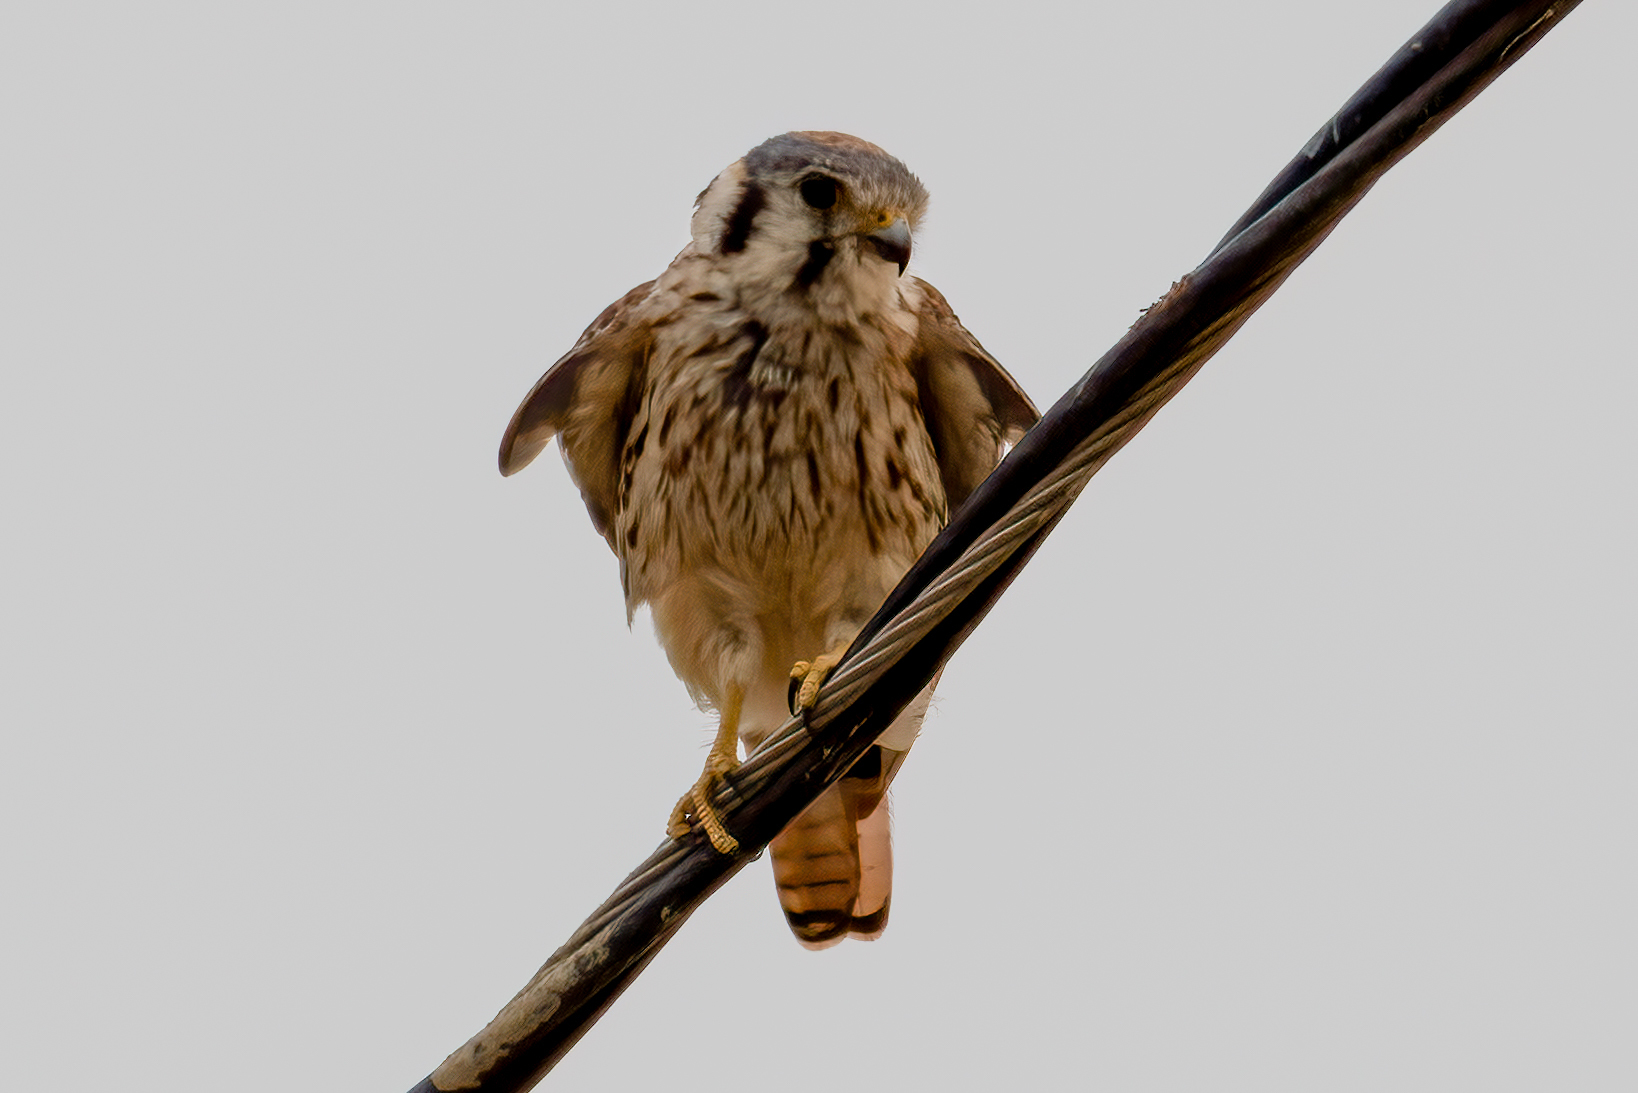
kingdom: Animalia
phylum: Chordata
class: Aves
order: Falconiformes
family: Falconidae
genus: Falco
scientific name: Falco sparverius
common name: American kestrel
